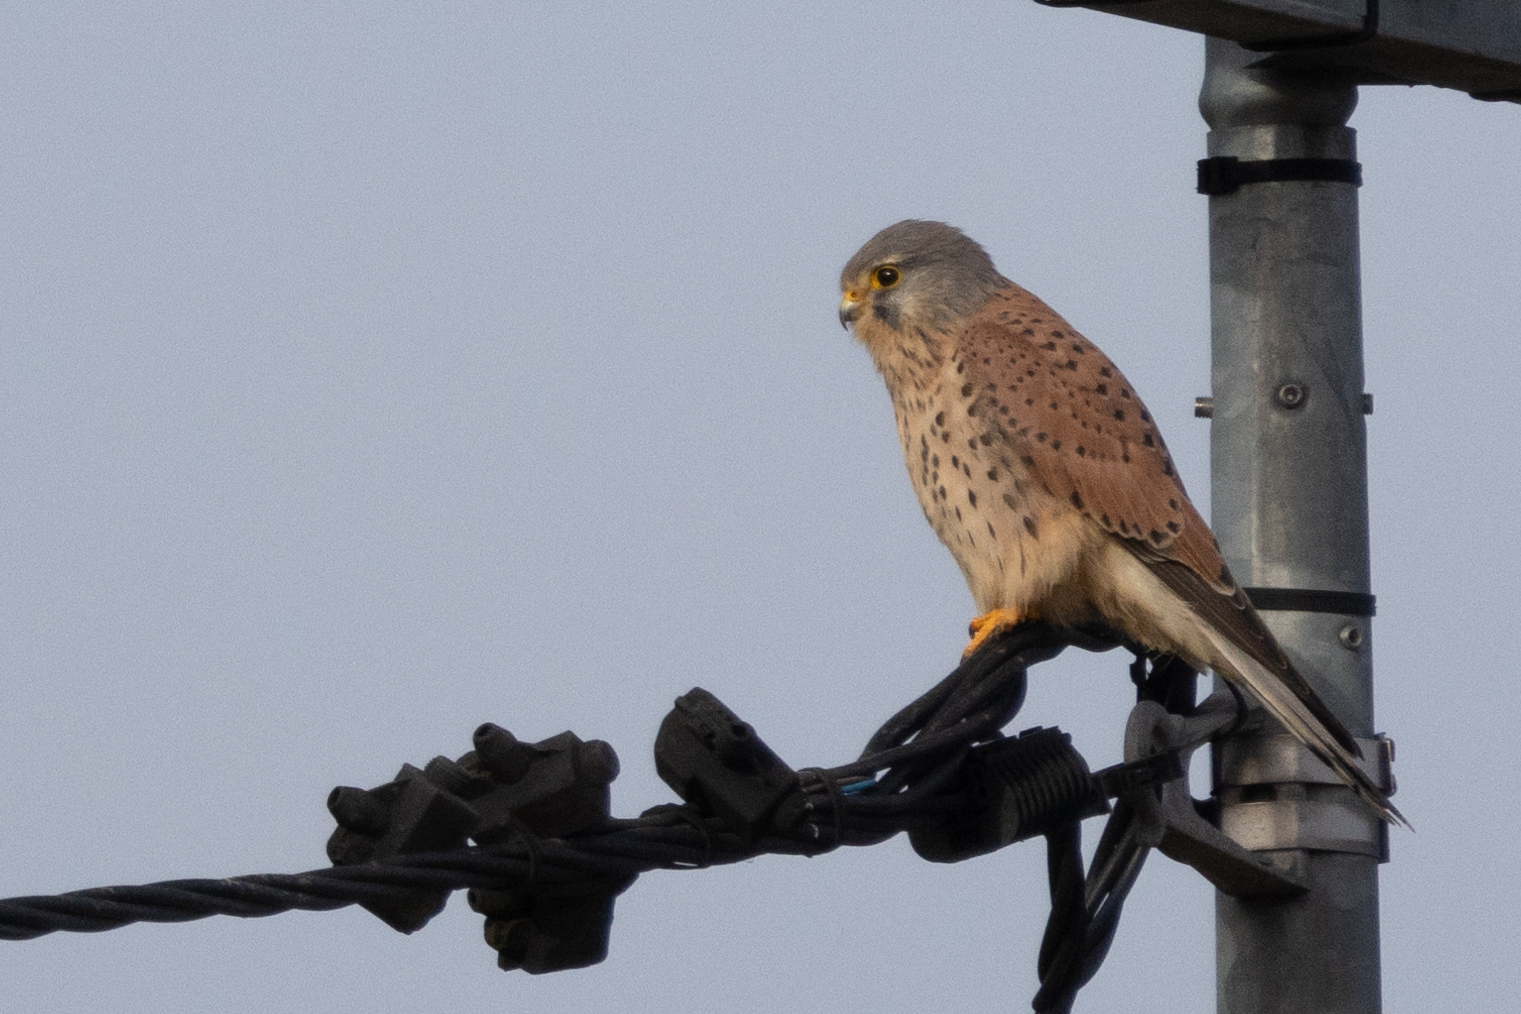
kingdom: Animalia
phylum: Chordata
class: Aves
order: Falconiformes
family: Falconidae
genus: Falco
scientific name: Falco tinnunculus
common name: Common kestrel
